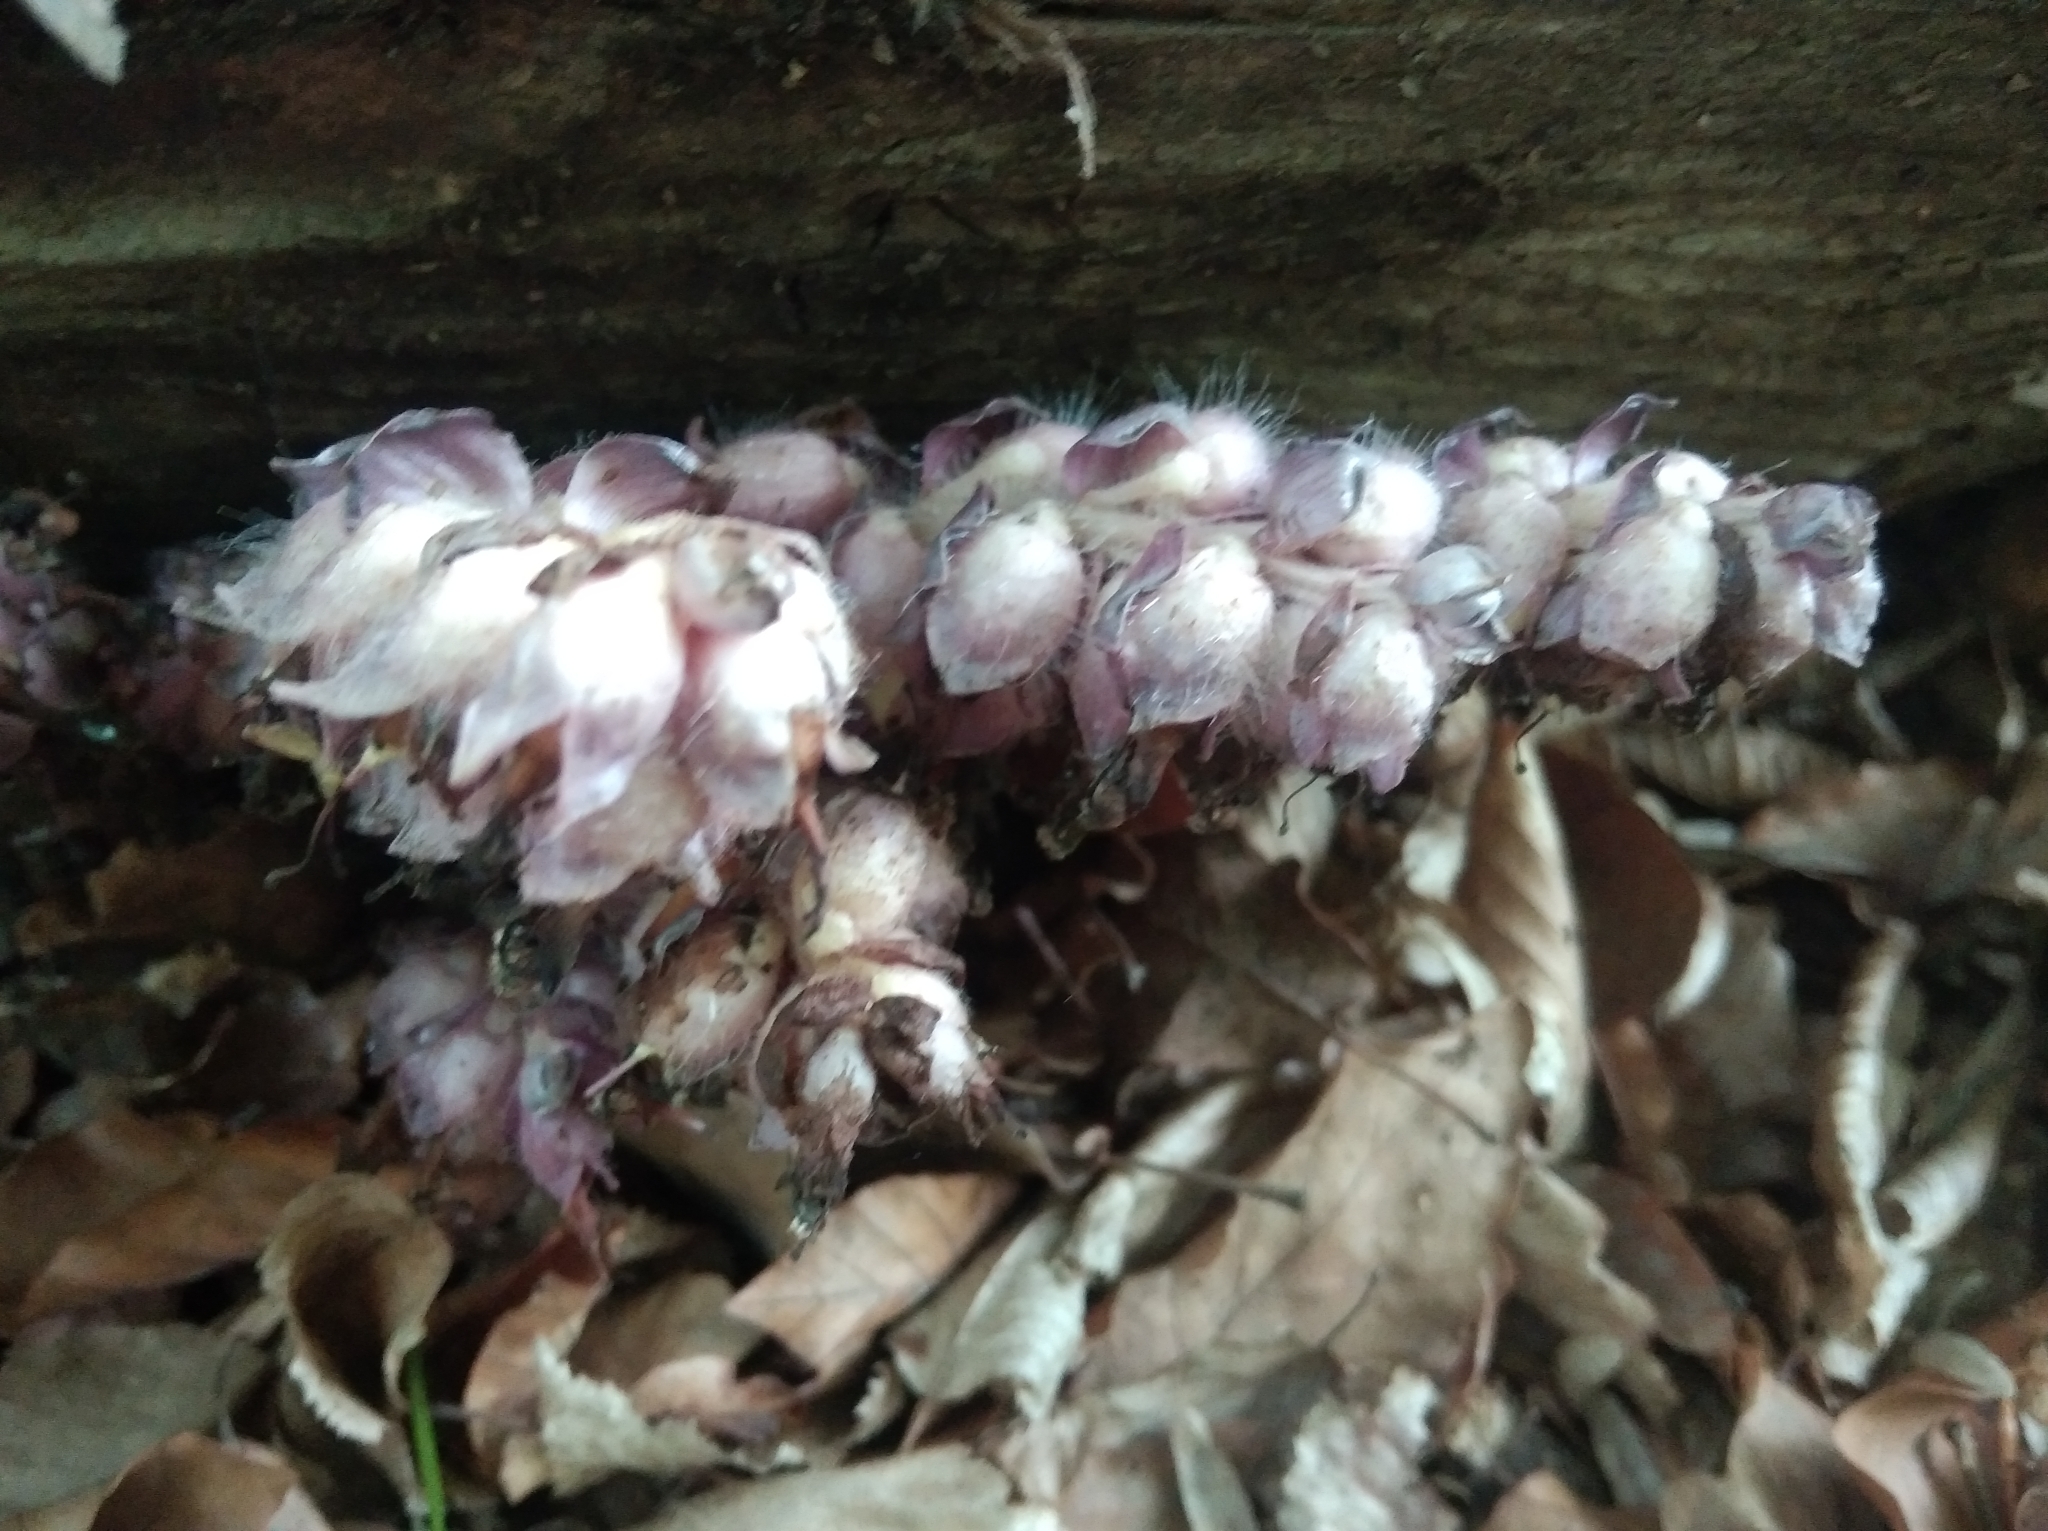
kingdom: Plantae
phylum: Tracheophyta
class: Magnoliopsida
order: Lamiales
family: Orobanchaceae
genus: Lathraea
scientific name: Lathraea squamaria
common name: Toothwort
